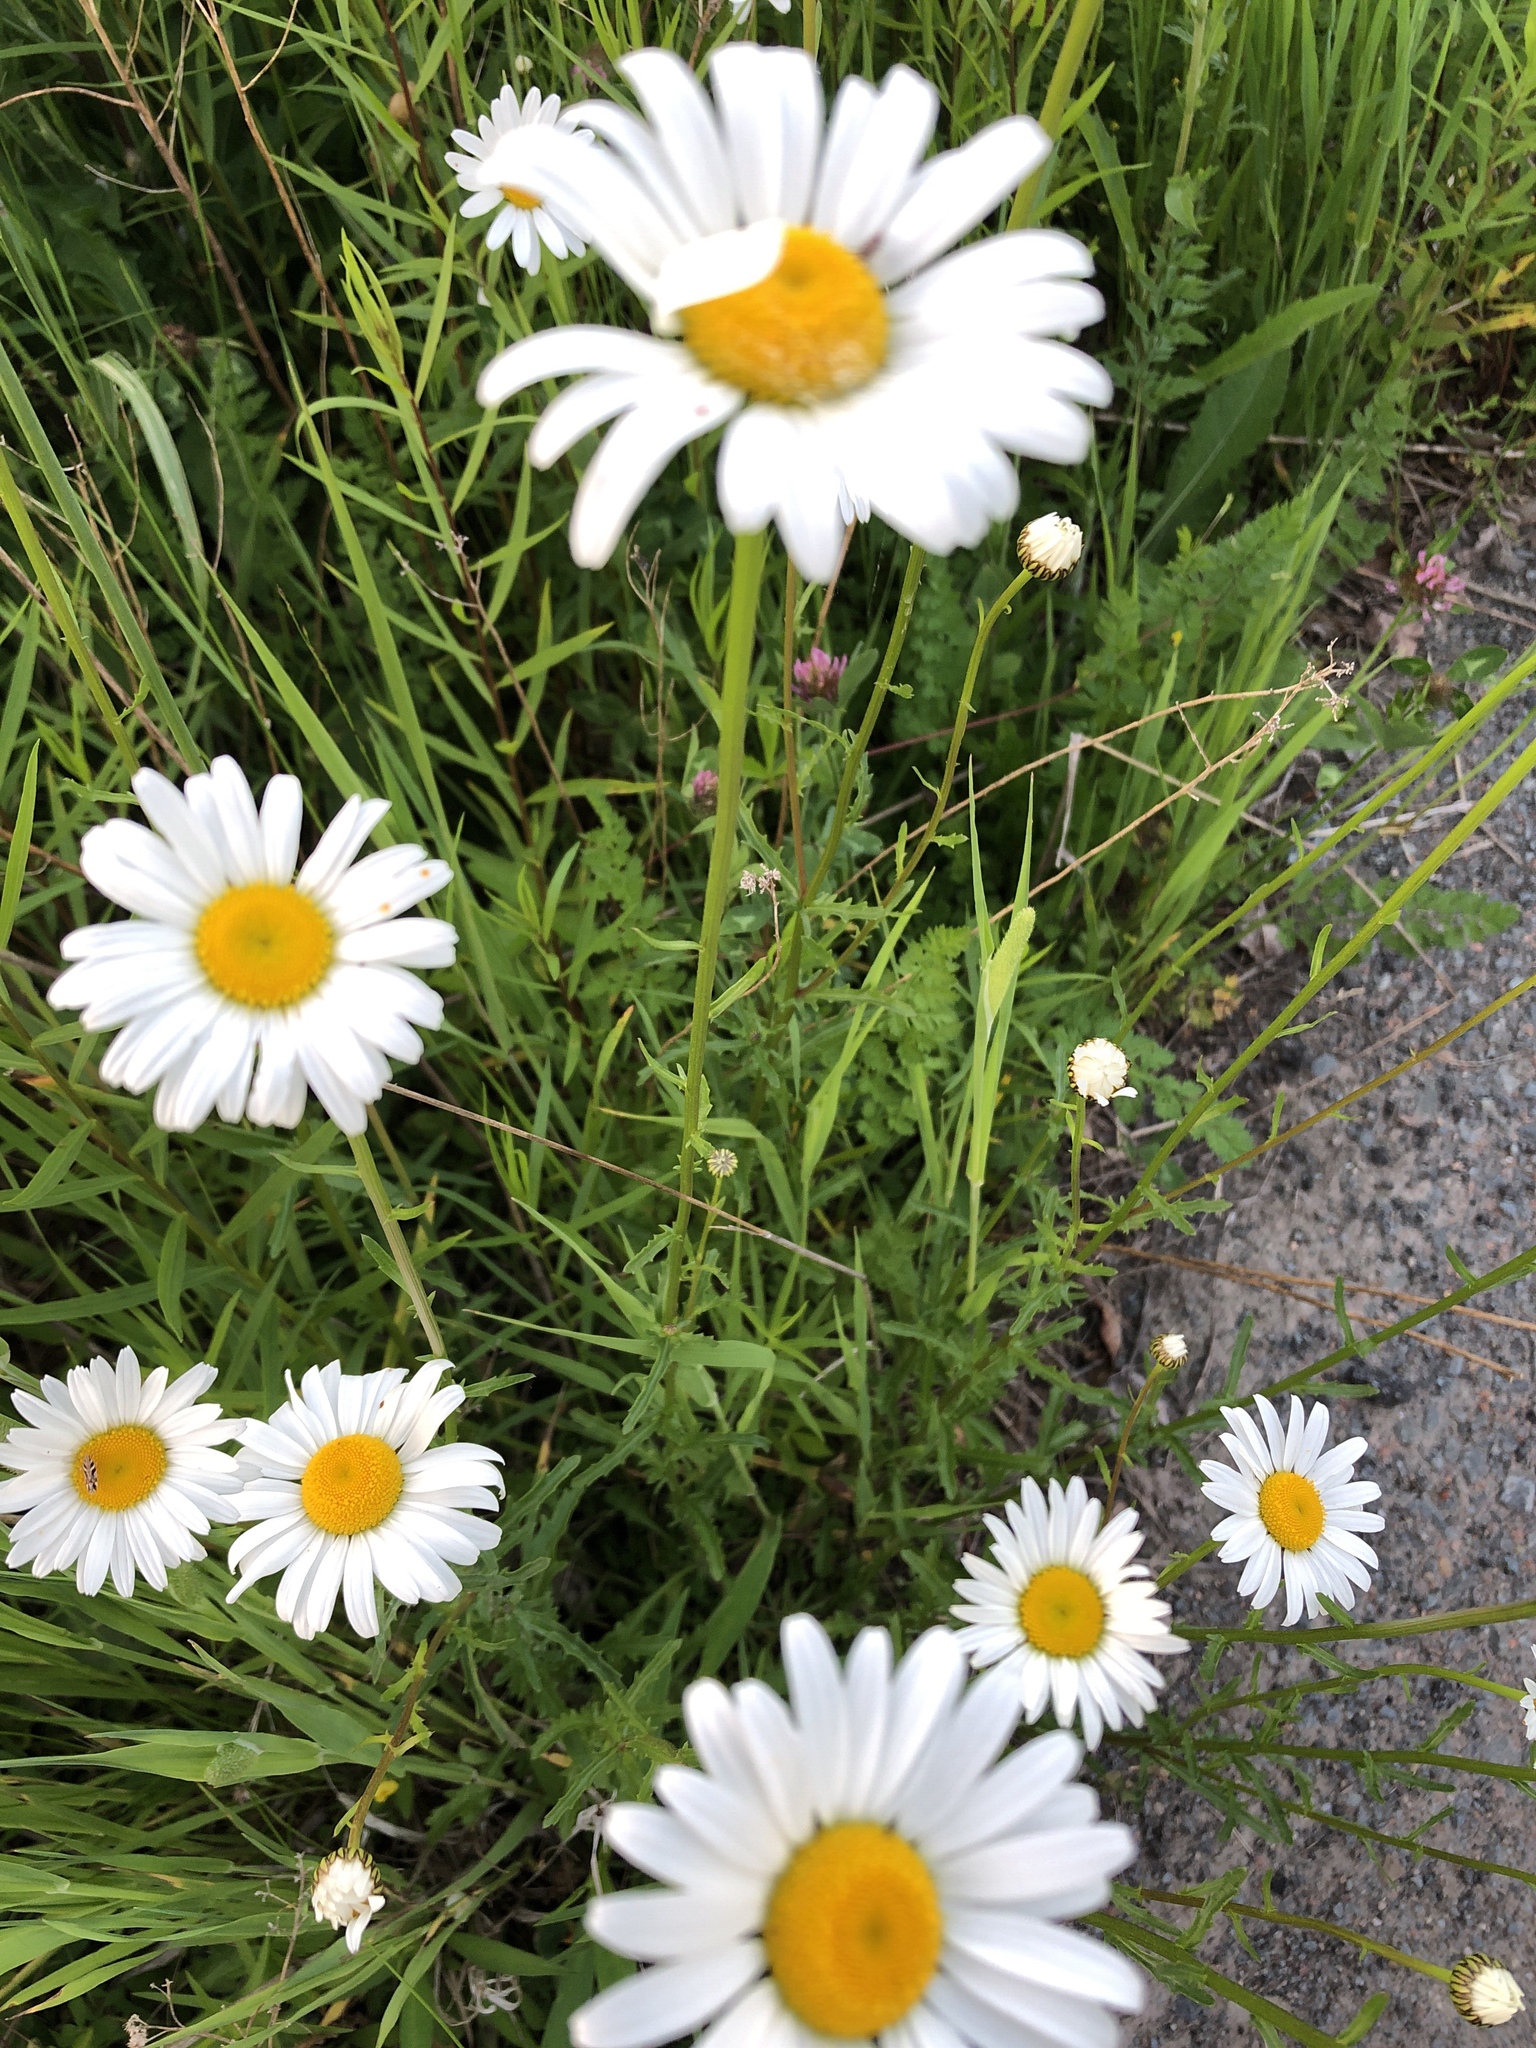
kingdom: Plantae
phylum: Tracheophyta
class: Magnoliopsida
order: Asterales
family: Asteraceae
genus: Leucanthemum
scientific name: Leucanthemum vulgare
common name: Oxeye daisy
